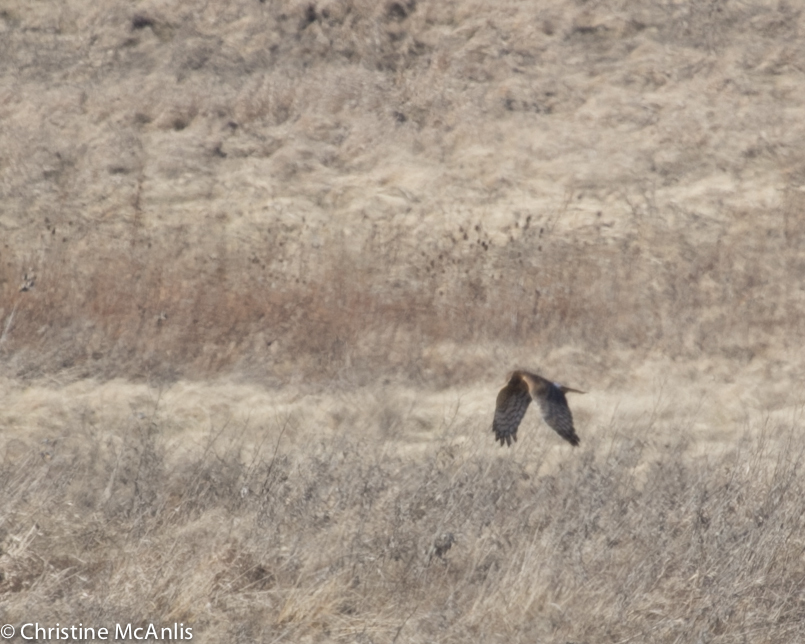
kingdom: Animalia
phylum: Chordata
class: Aves
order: Accipitriformes
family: Accipitridae
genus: Circus
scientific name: Circus cyaneus
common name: Hen harrier
